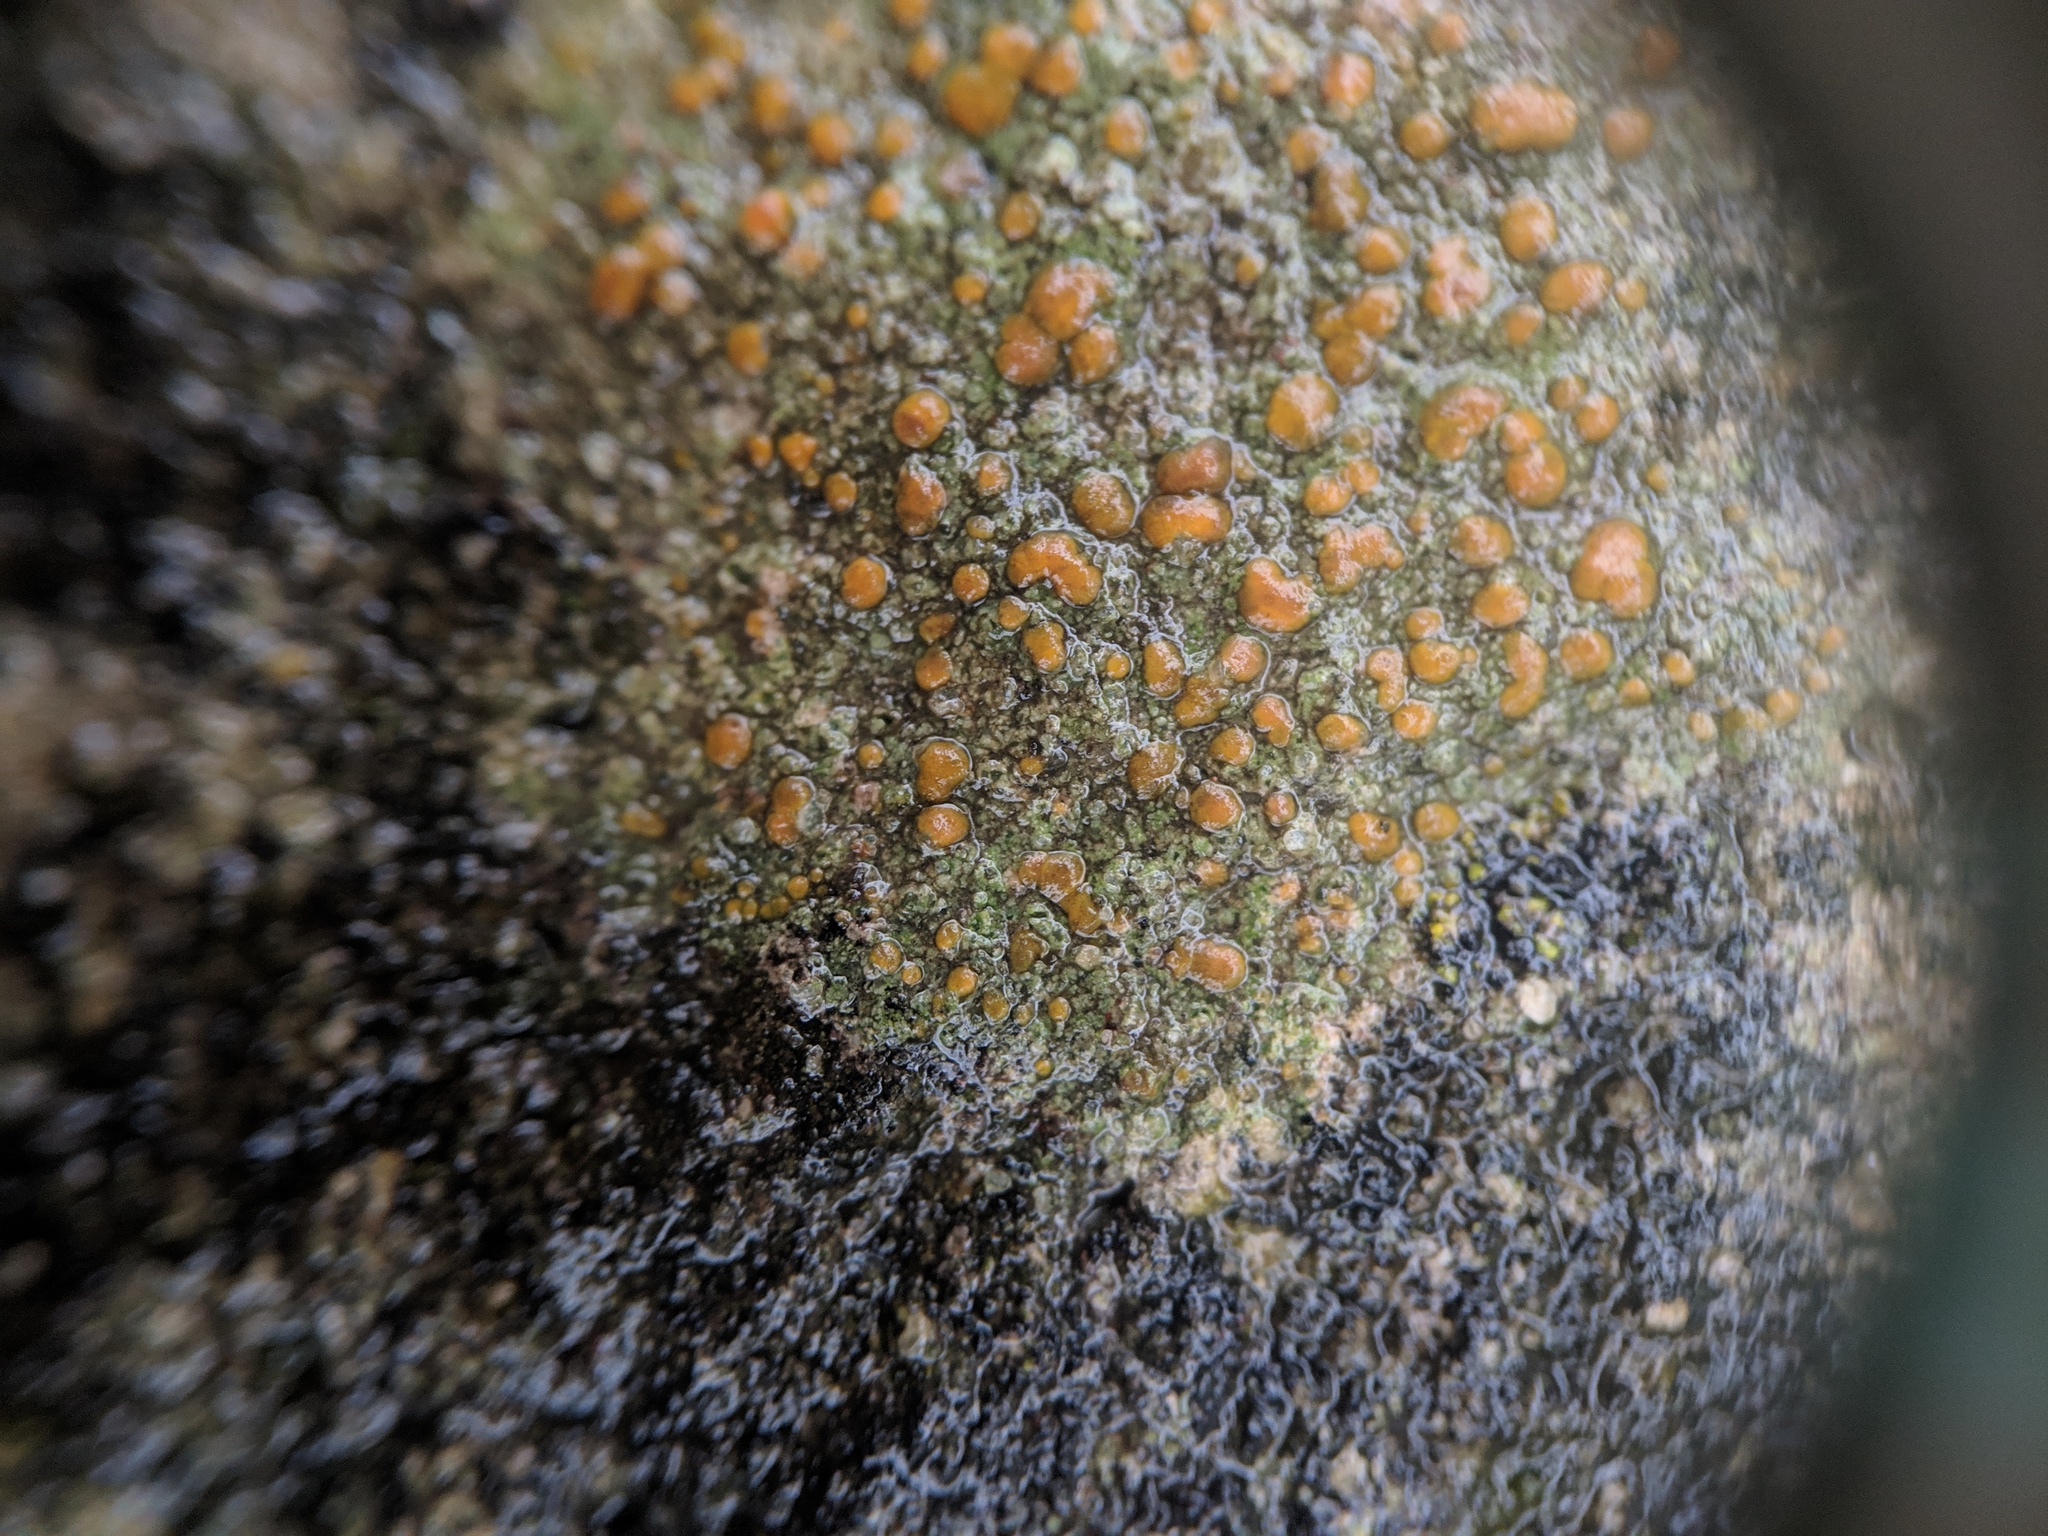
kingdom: Fungi
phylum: Ascomycota
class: Lecanoromycetes
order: Lecanorales
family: Psoraceae
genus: Protoblastenia
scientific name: Protoblastenia rupestris
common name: Chewing gum lichen
